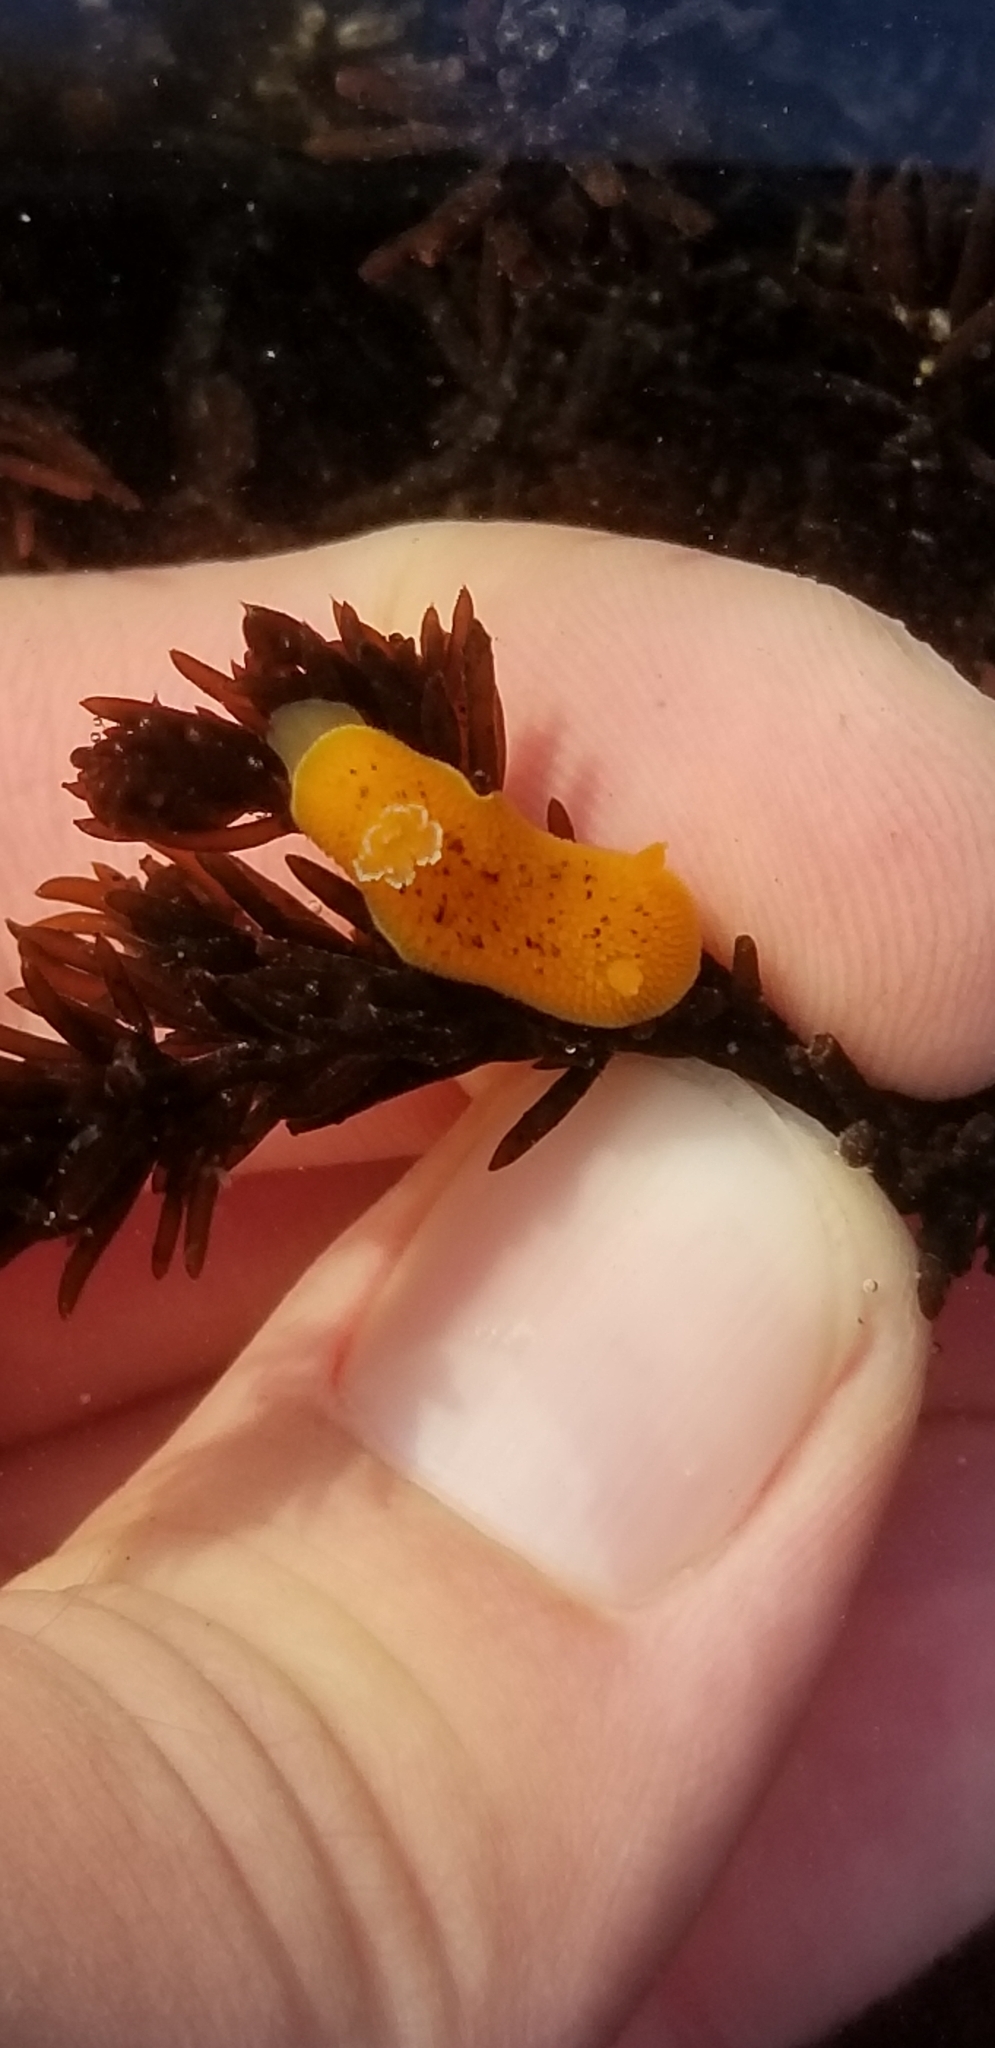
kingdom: Animalia
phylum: Mollusca
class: Gastropoda
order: Nudibranchia
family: Discodorididae
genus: Peltodoris
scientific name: Peltodoris nobilis
